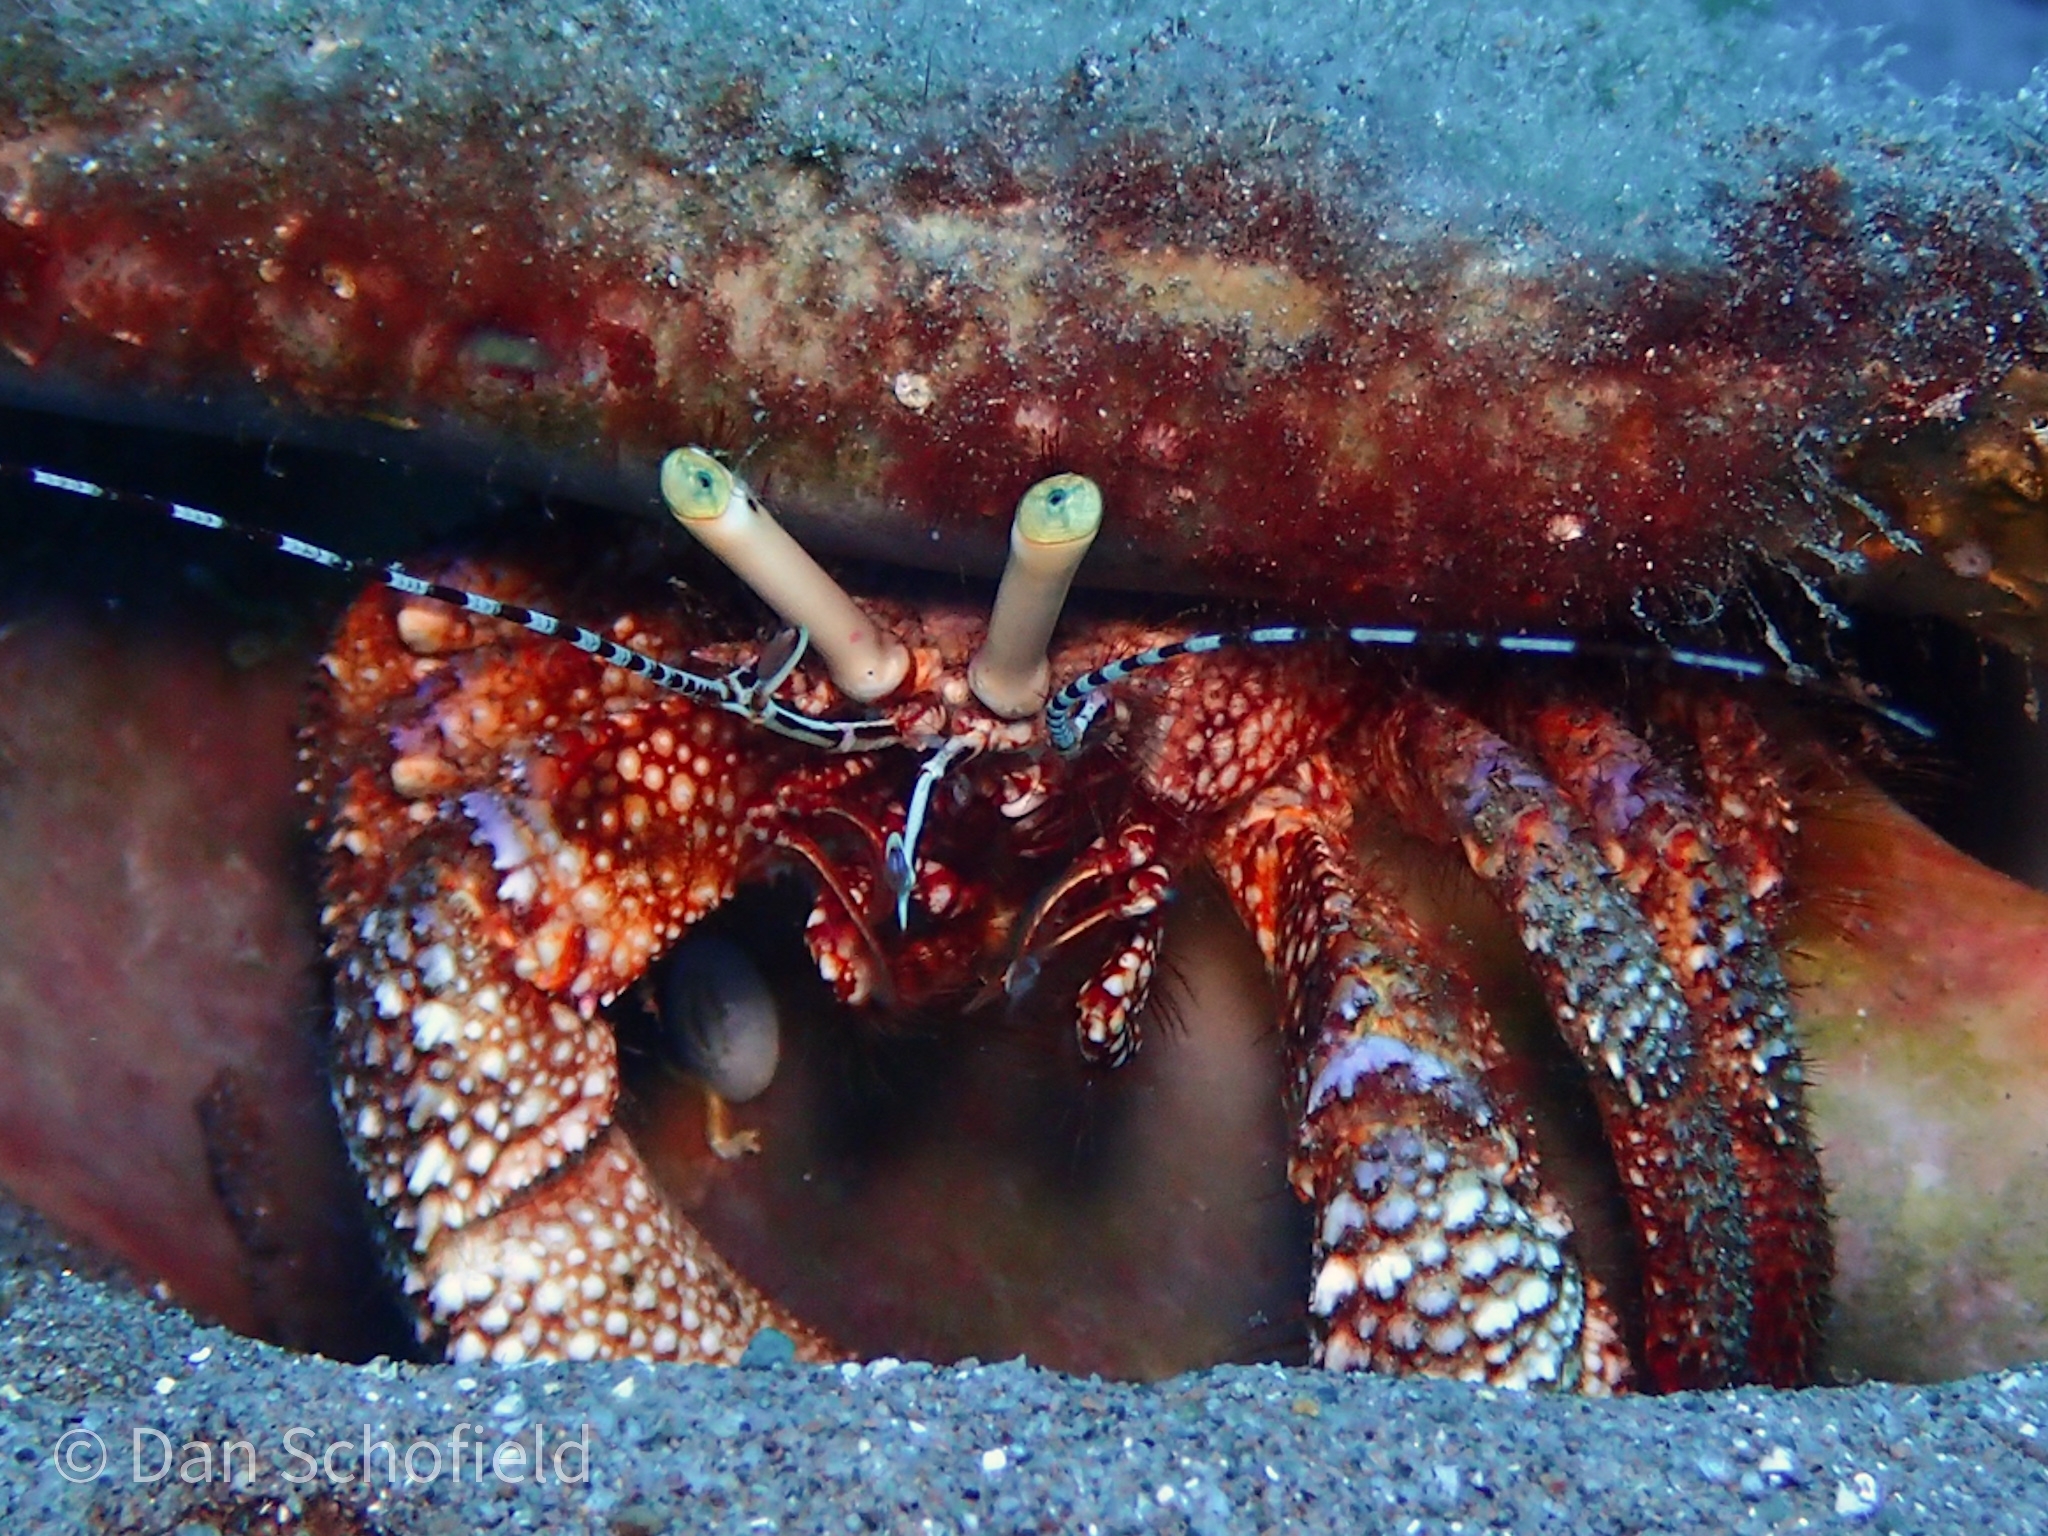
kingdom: Animalia
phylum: Arthropoda
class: Malacostraca
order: Decapoda
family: Diogenidae
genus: Petrochirus
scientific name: Petrochirus diogenes
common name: Giant hermit crab
